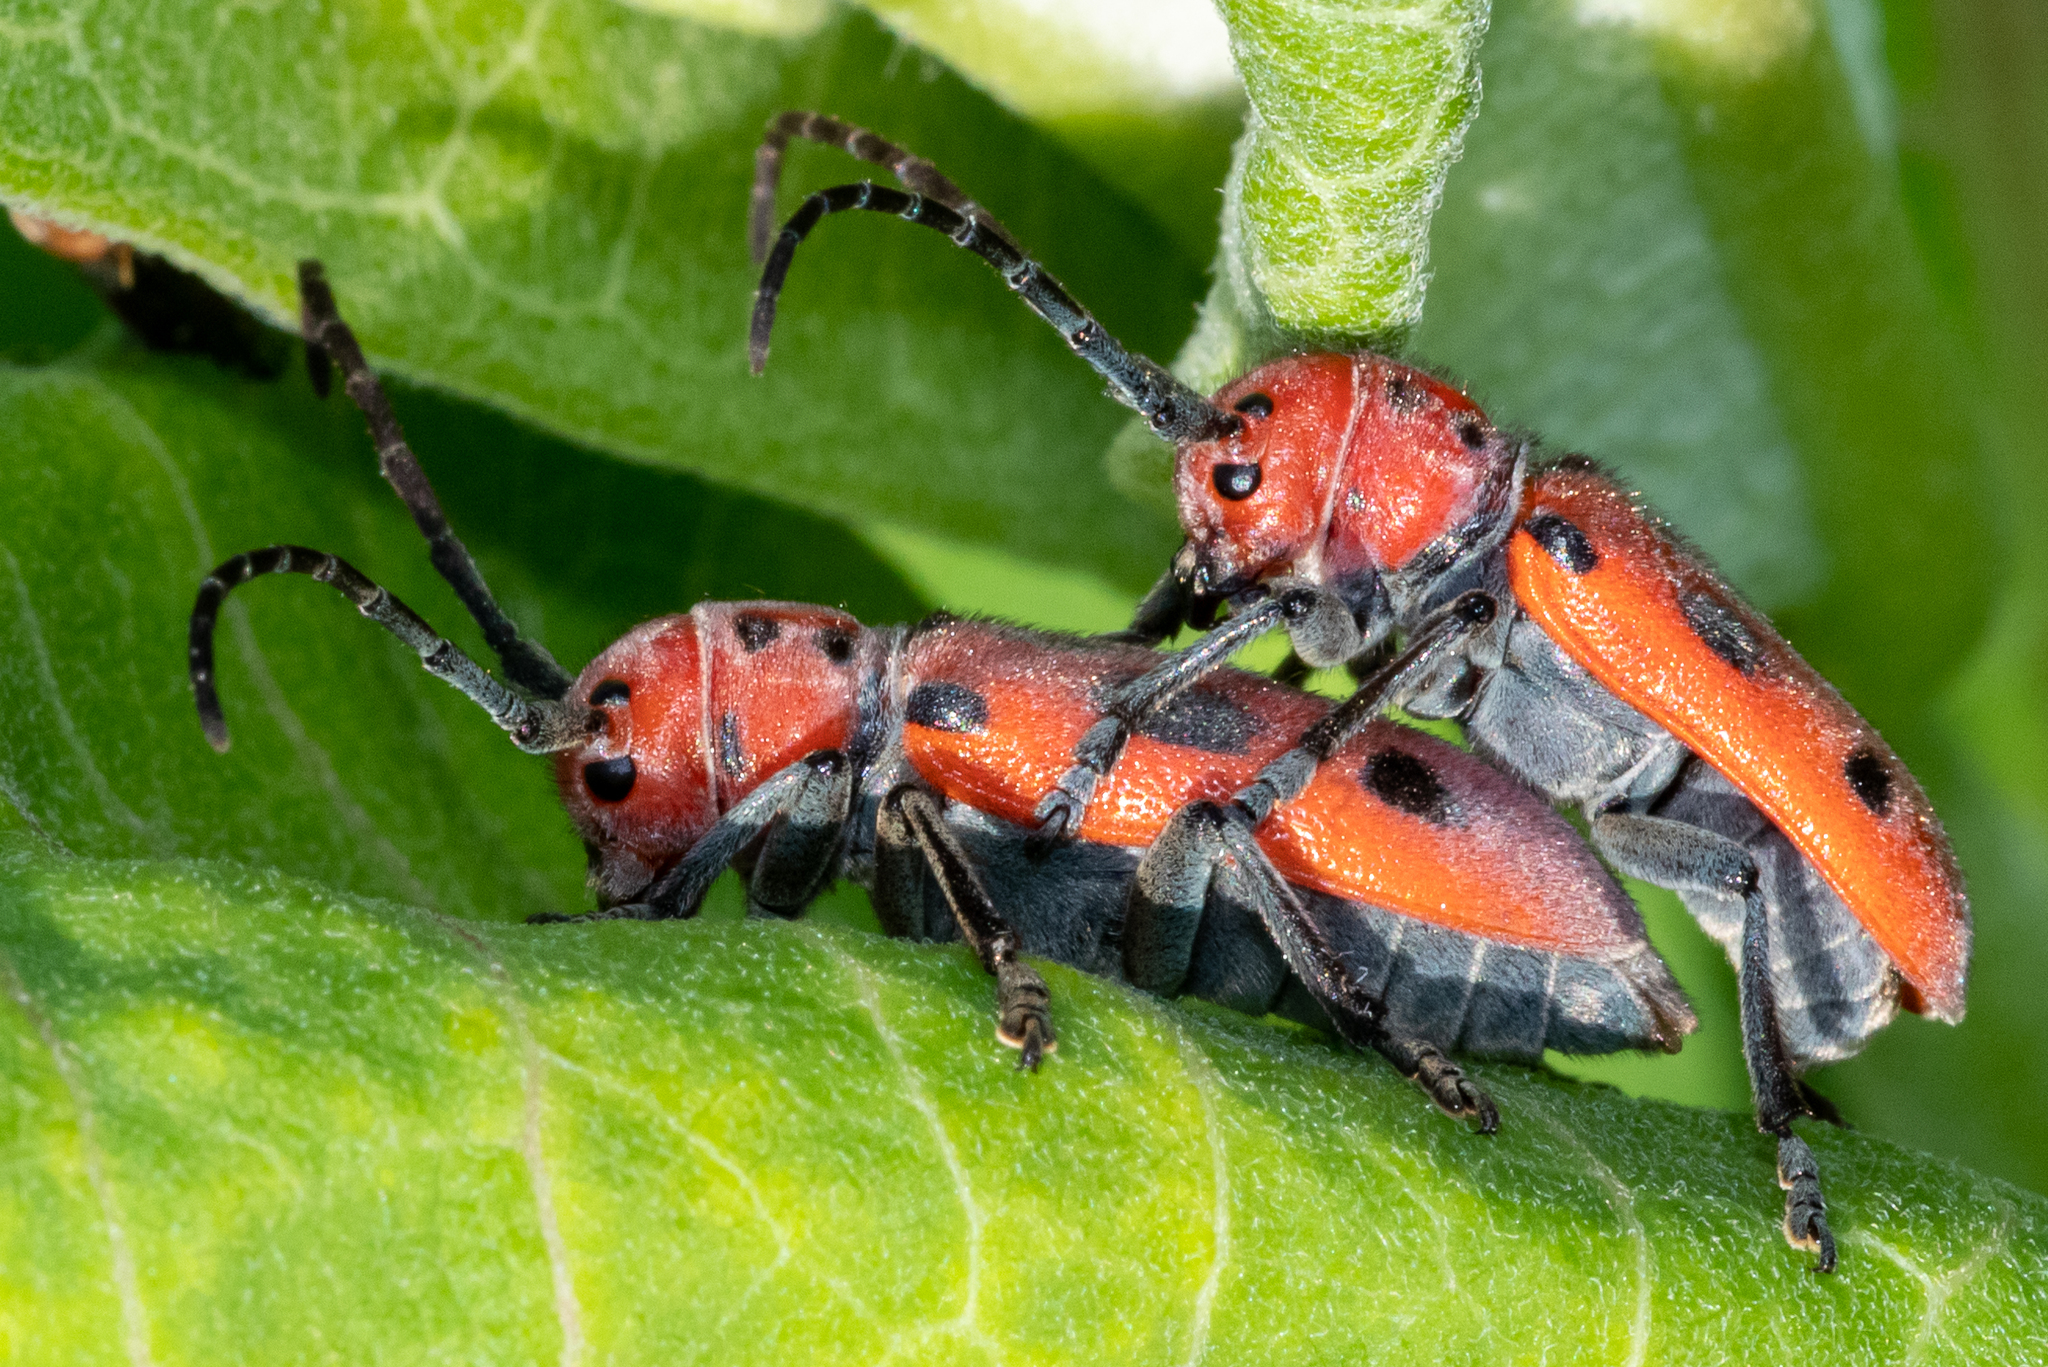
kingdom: Animalia
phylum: Arthropoda
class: Insecta
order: Coleoptera
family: Cerambycidae
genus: Tetraopes
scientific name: Tetraopes tetrophthalmus
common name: Red milkweed beetle
